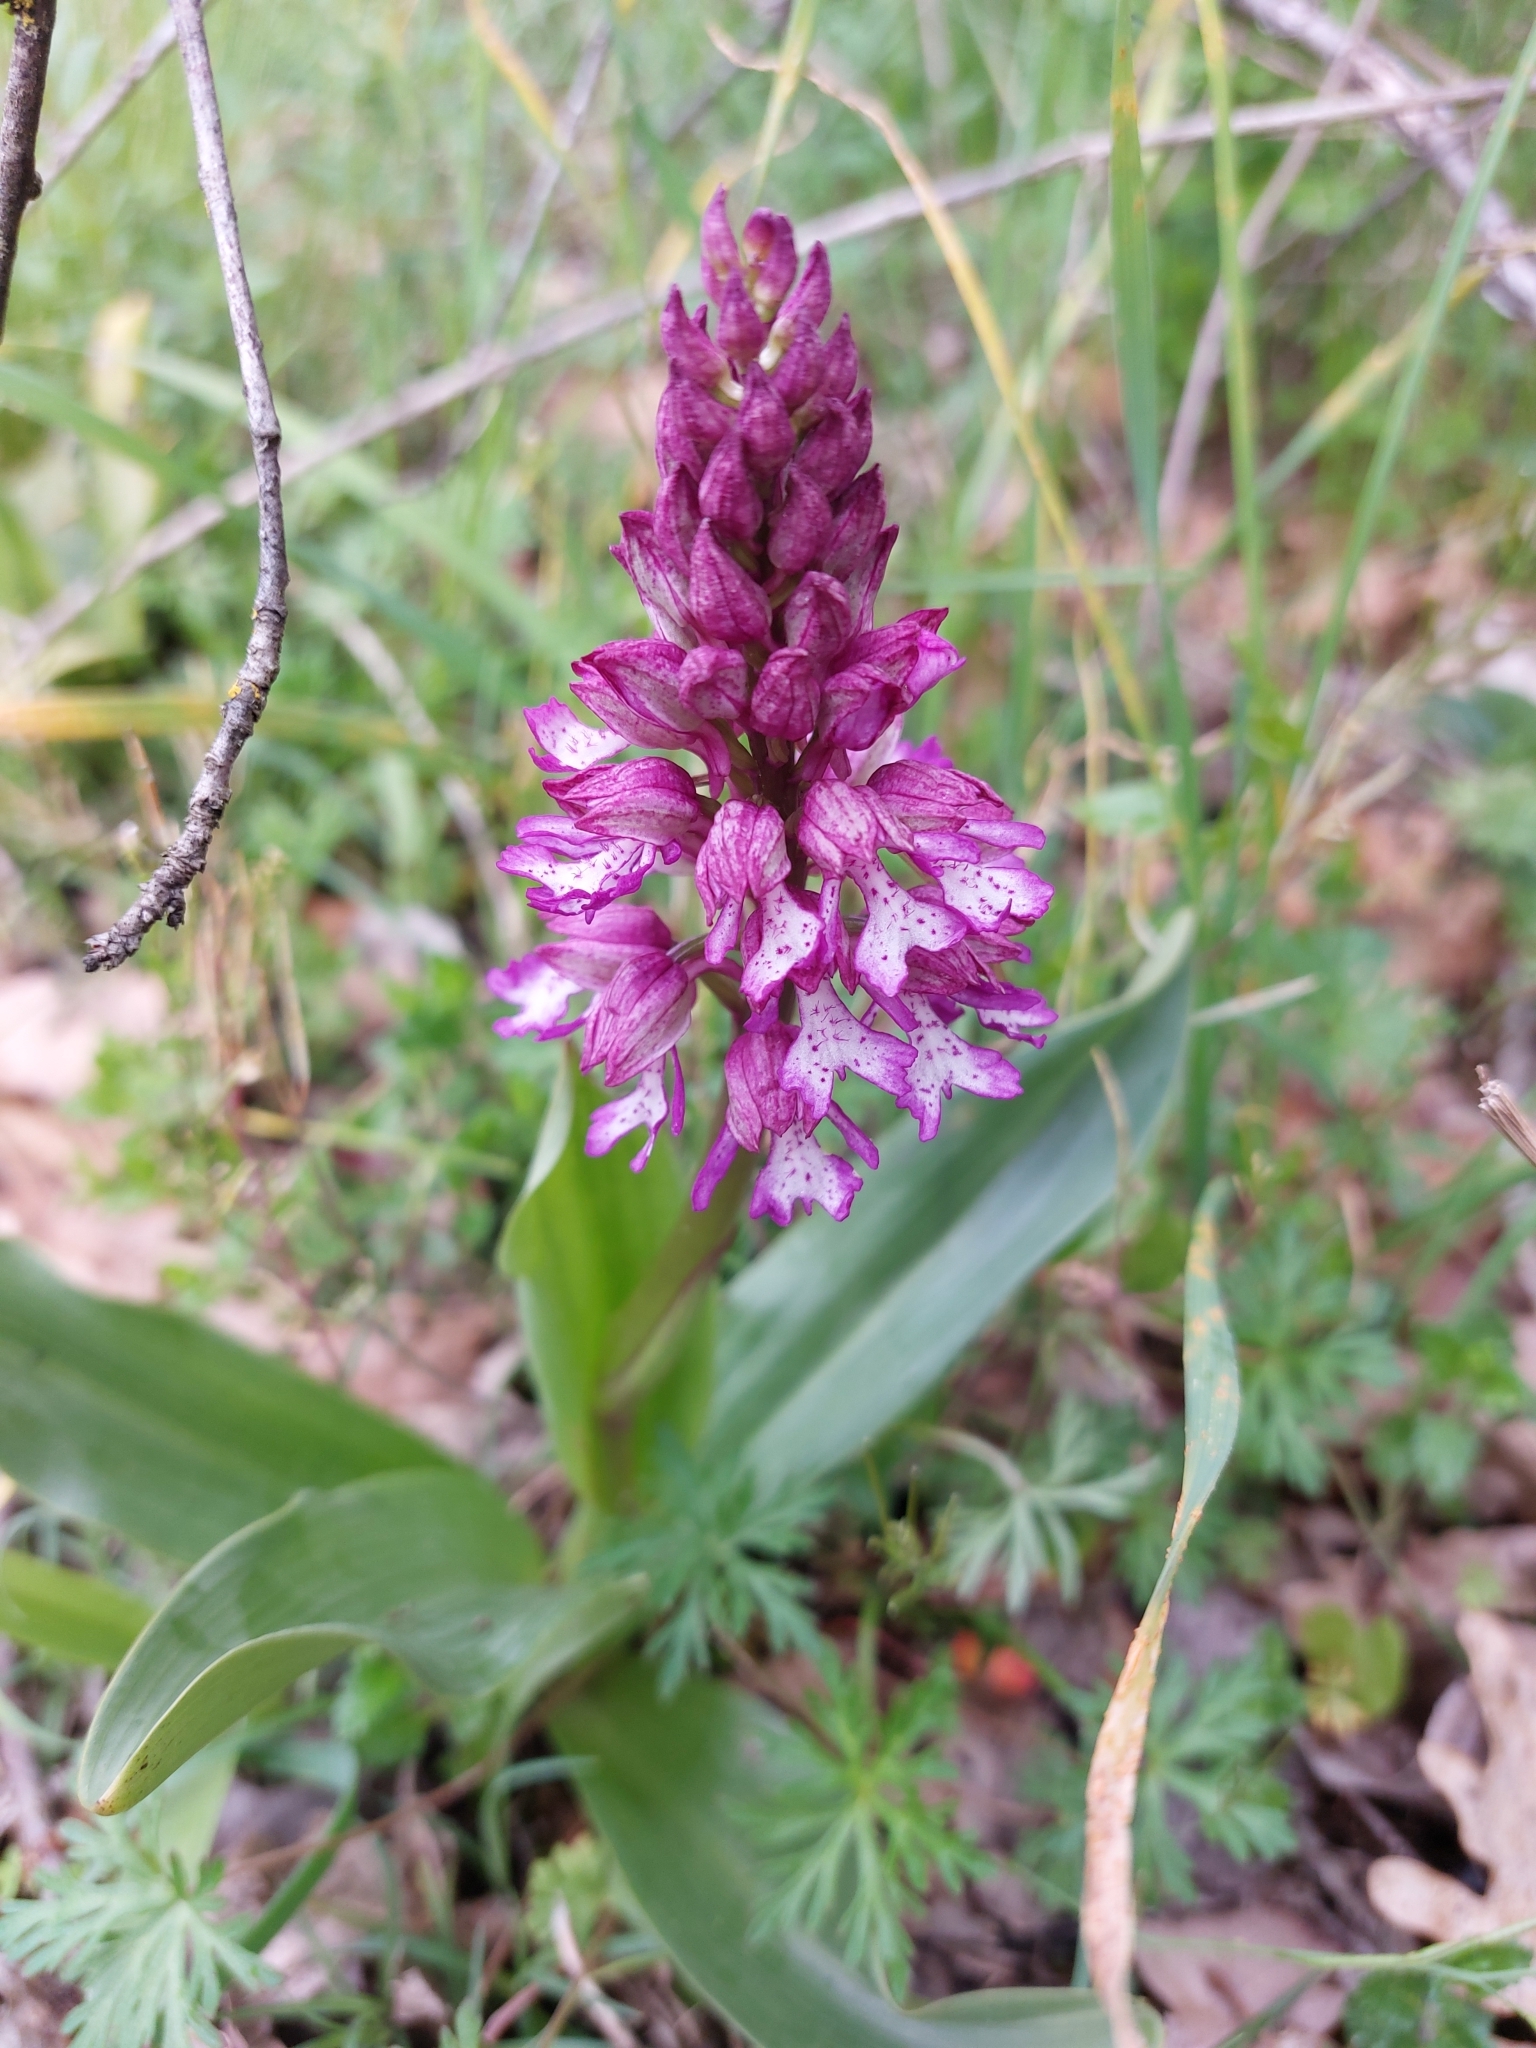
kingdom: Plantae
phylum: Tracheophyta
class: Liliopsida
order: Asparagales
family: Orchidaceae
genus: Orchis
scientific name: Orchis hybrida
